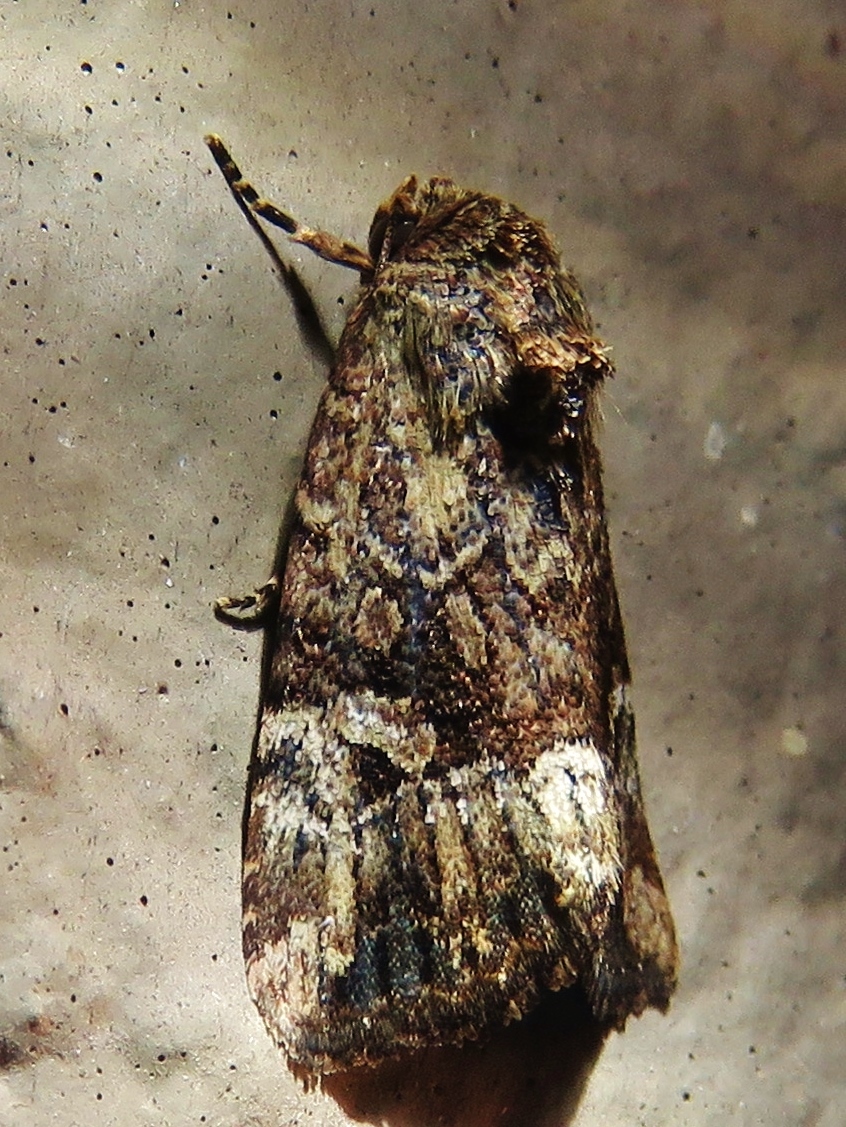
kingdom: Animalia
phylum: Arthropoda
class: Insecta
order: Lepidoptera
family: Noctuidae
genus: Elaphria
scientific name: Elaphria exesa
